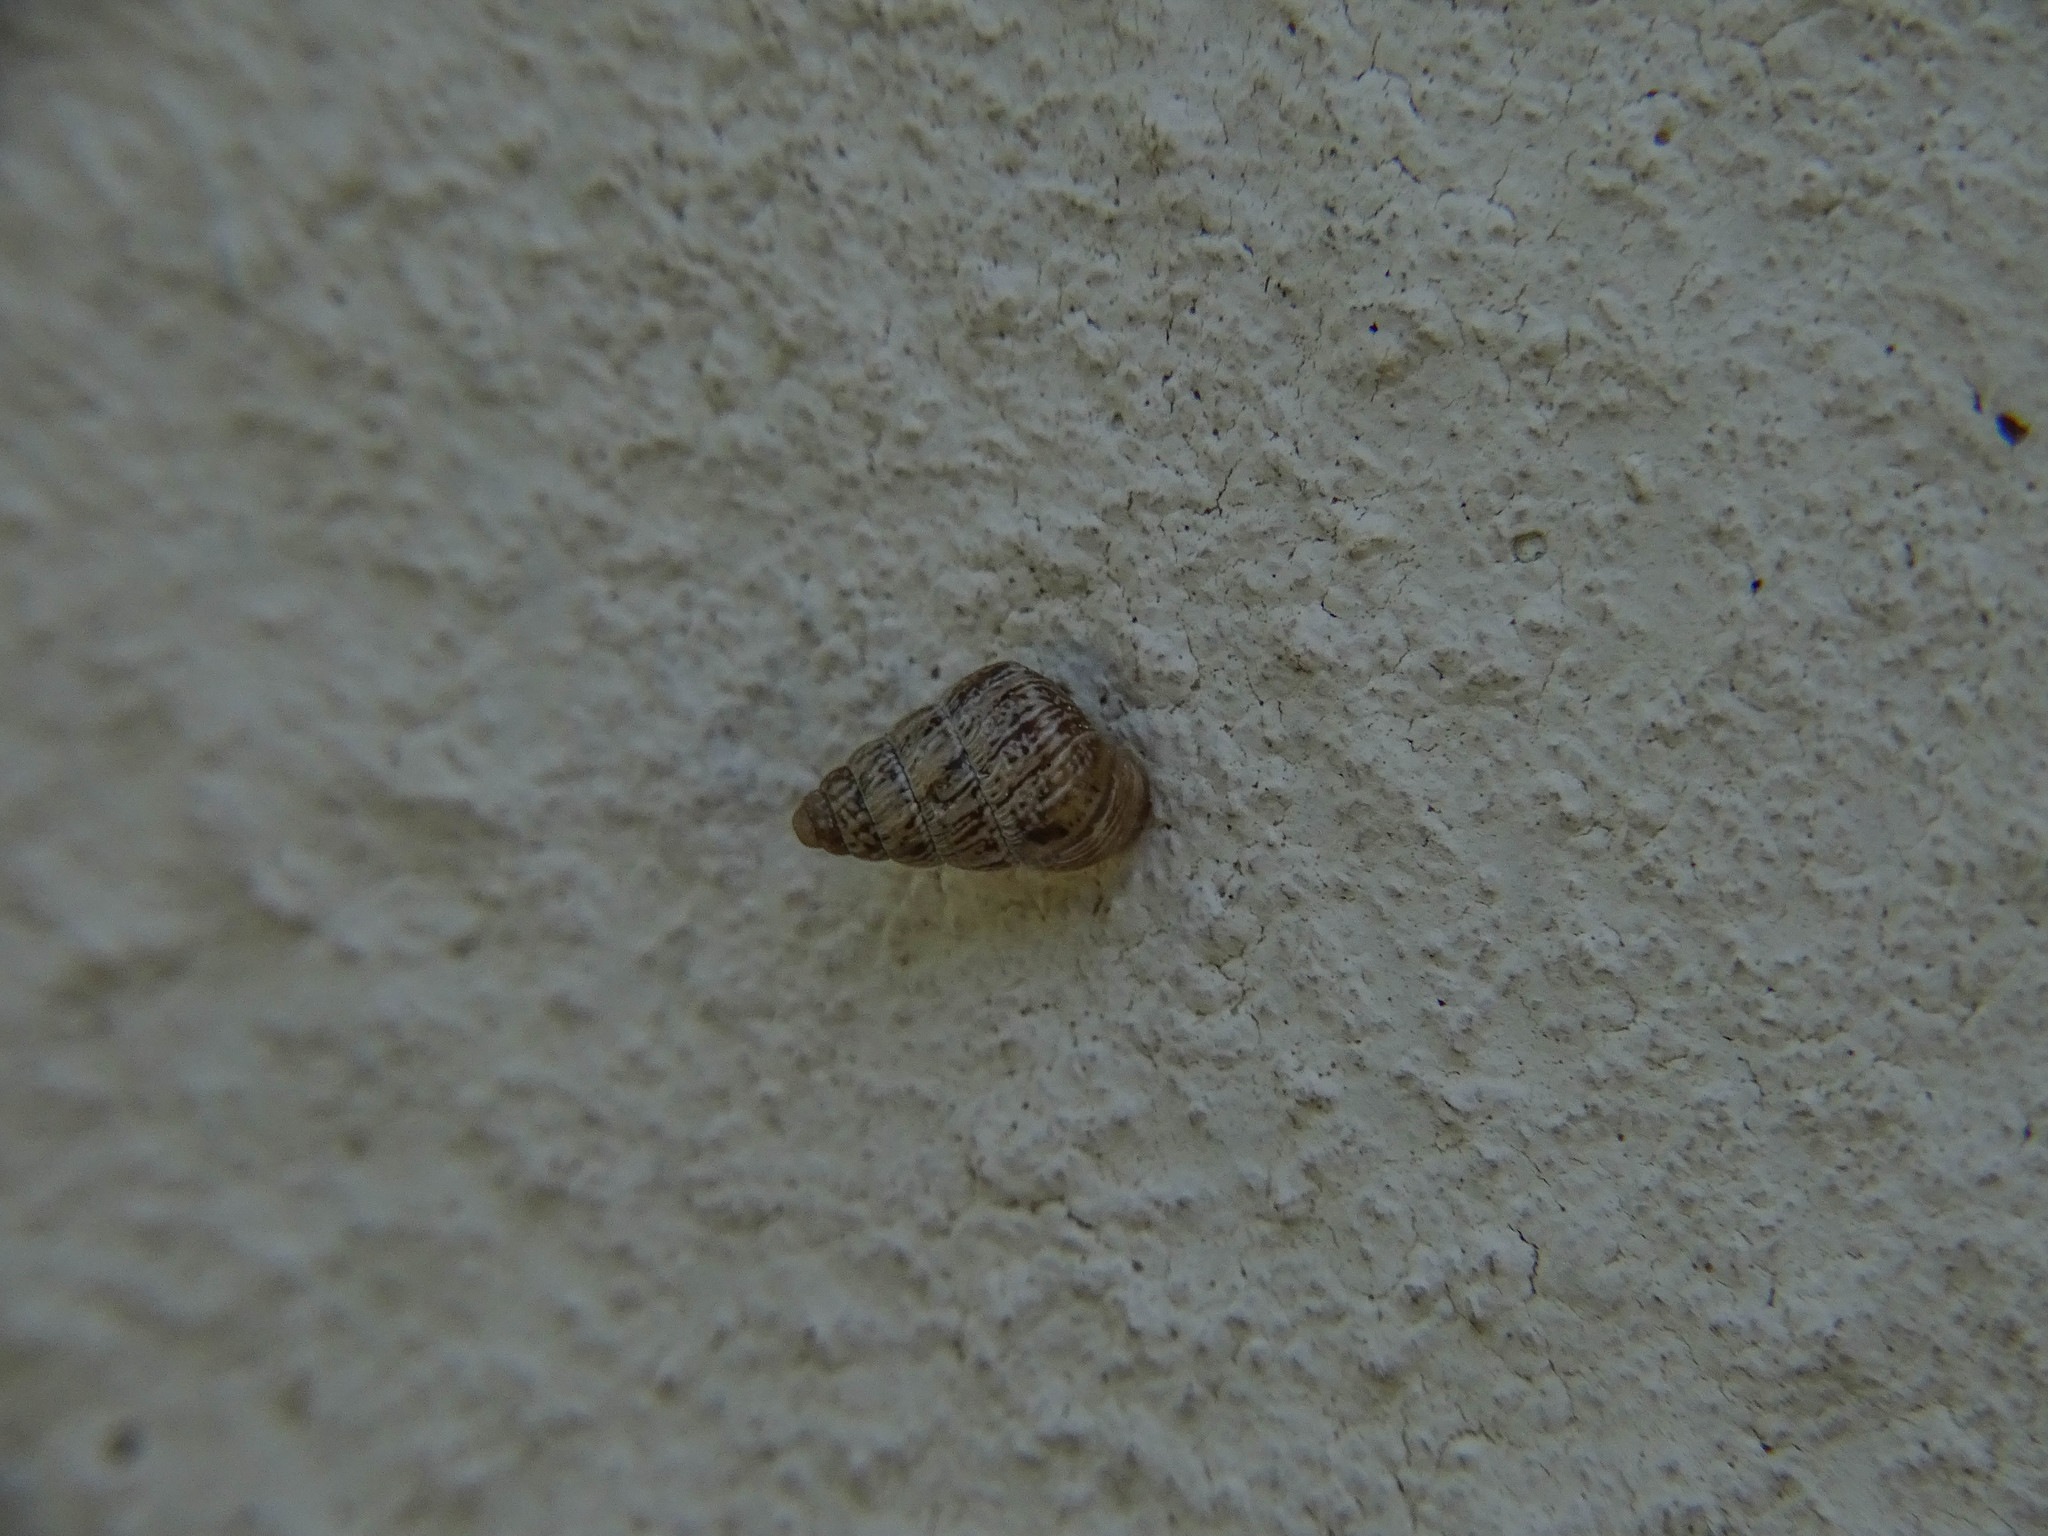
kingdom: Animalia
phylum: Mollusca
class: Gastropoda
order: Stylommatophora
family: Geomitridae
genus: Cochlicella
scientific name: Cochlicella barbara
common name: Potbellied helicellid
